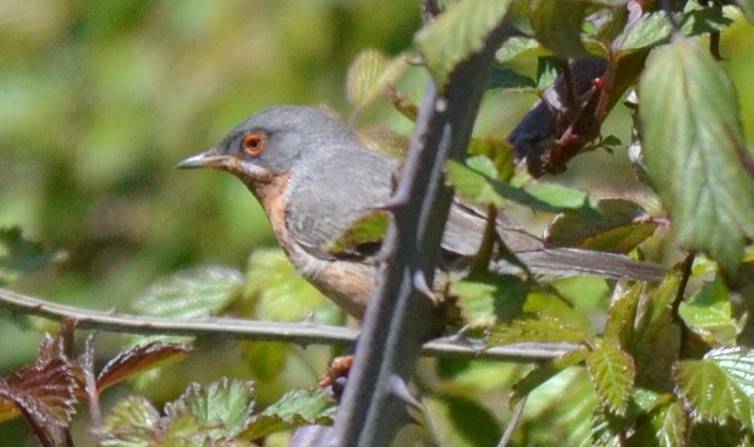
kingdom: Animalia
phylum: Chordata
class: Aves
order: Passeriformes
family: Sylviidae
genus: Curruca
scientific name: Curruca iberiae
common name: Western subalpine warbler
